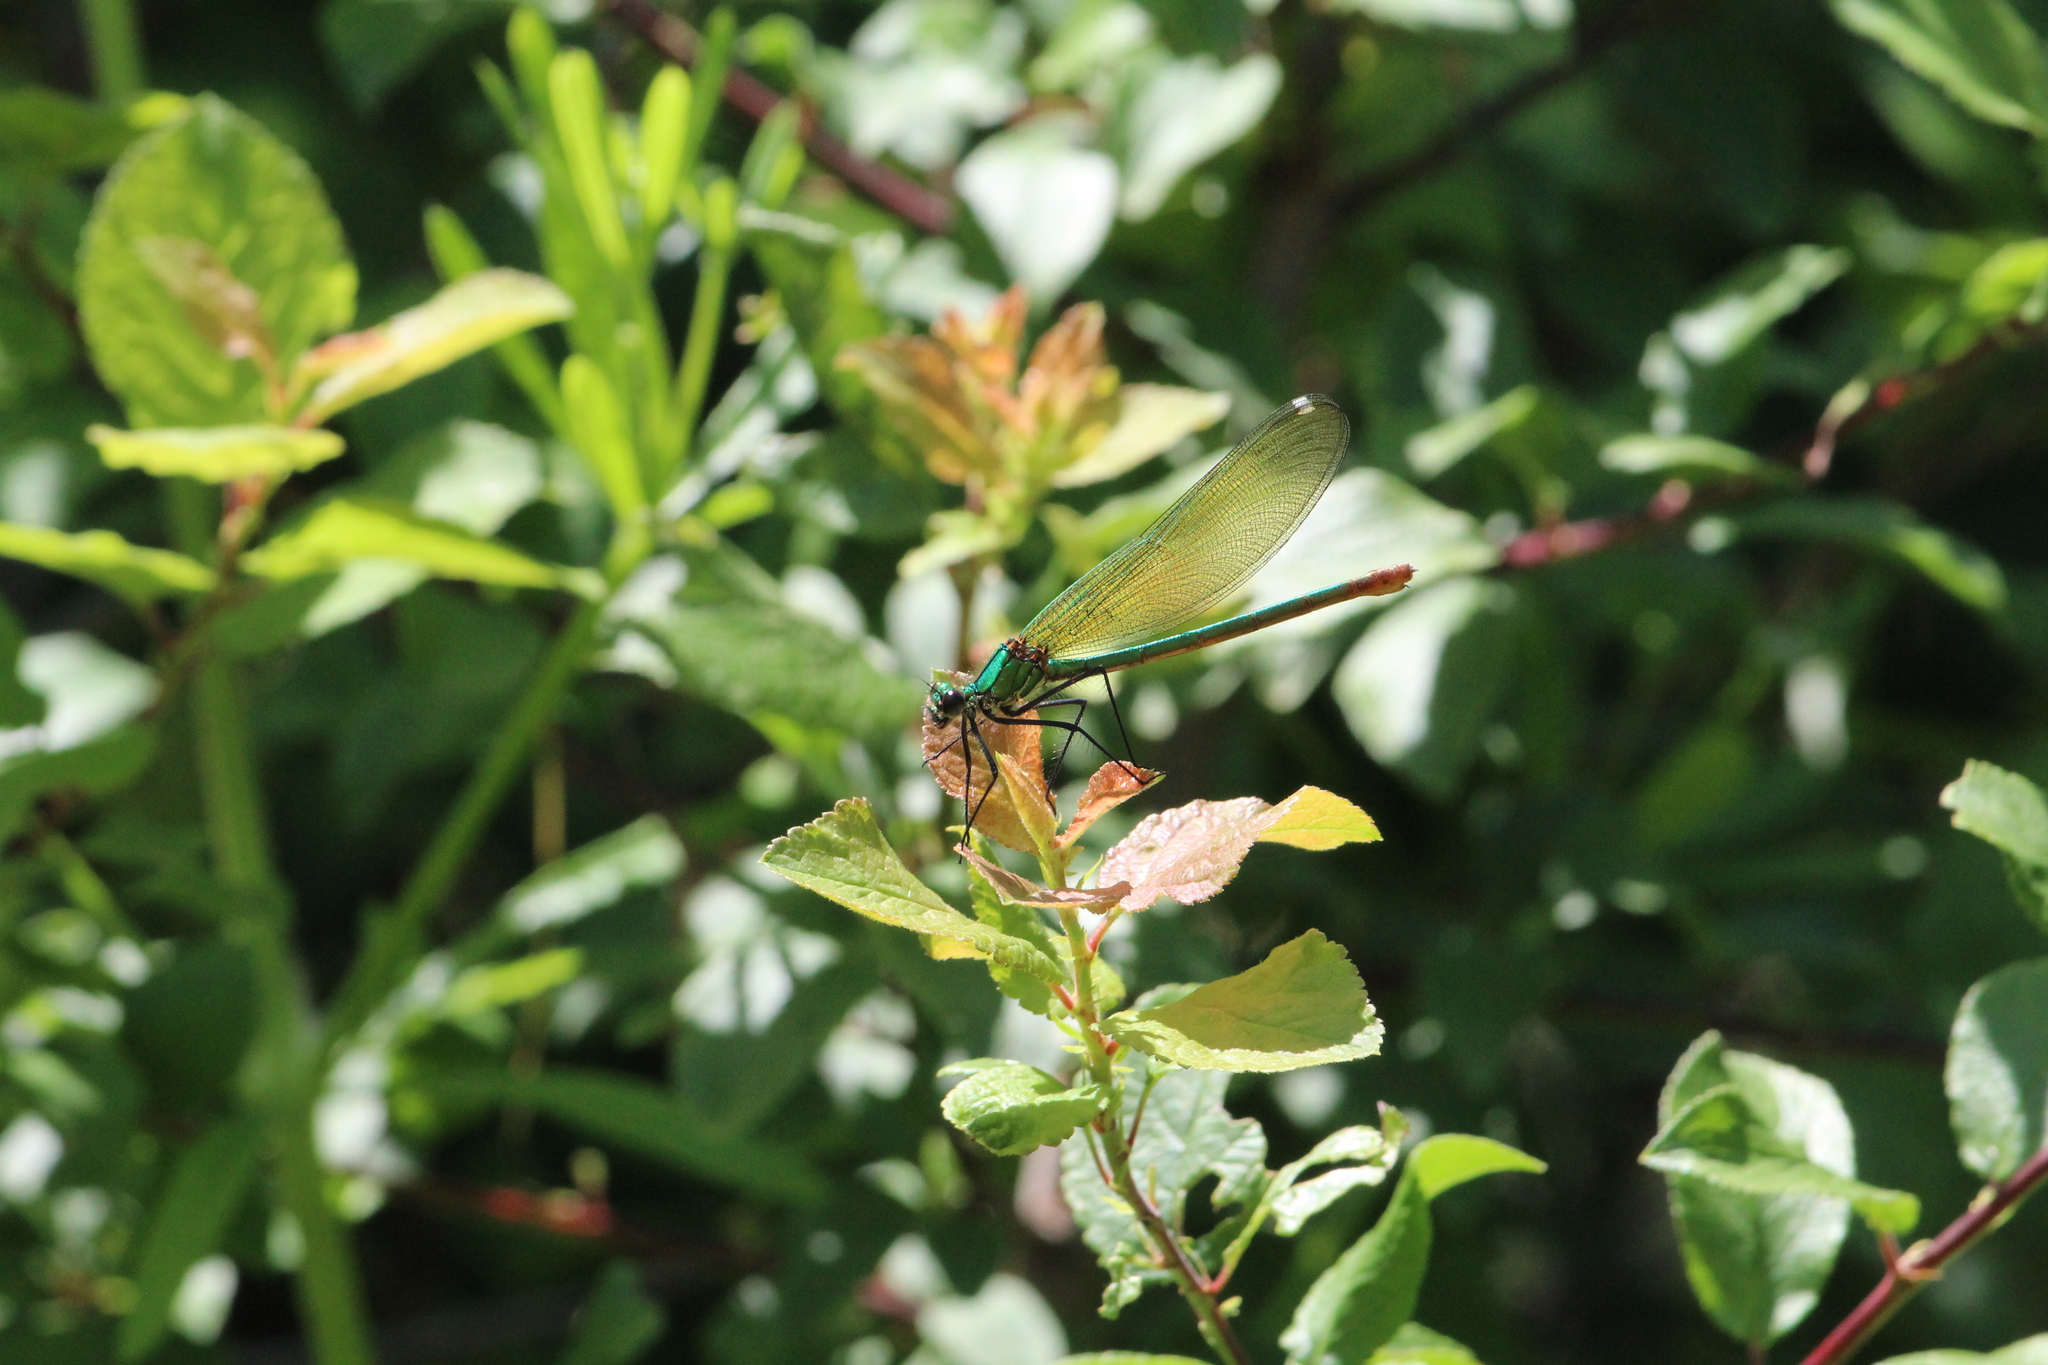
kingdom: Animalia
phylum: Arthropoda
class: Insecta
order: Odonata
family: Calopterygidae
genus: Calopteryx
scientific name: Calopteryx xanthostoma
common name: Western demoiselle
